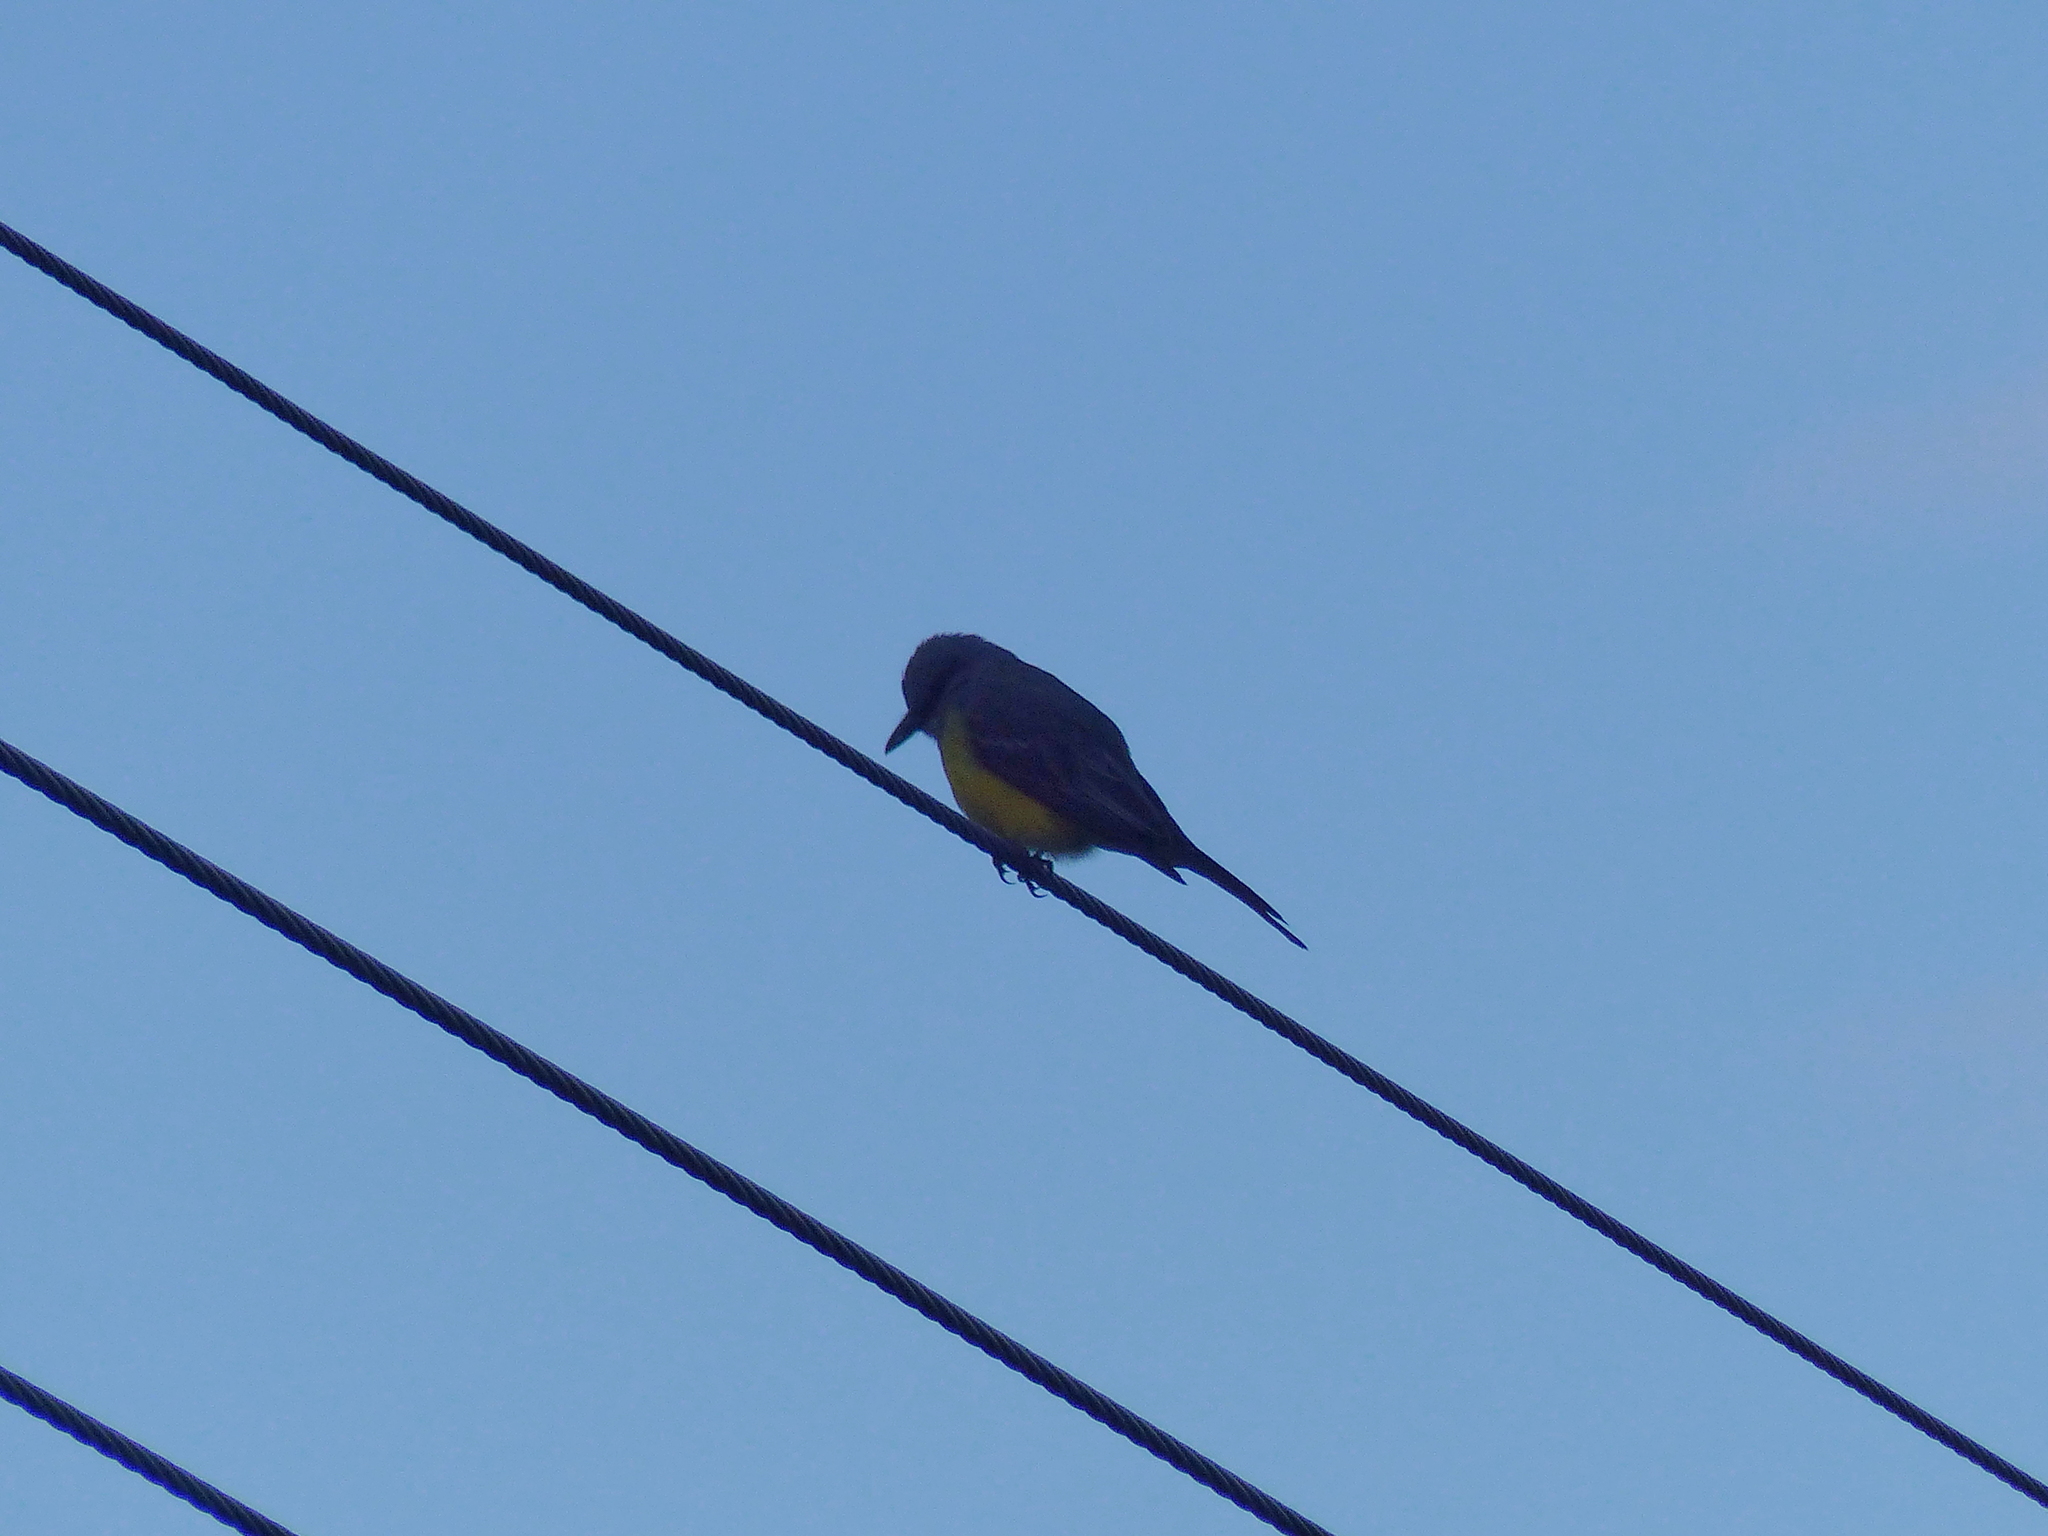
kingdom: Animalia
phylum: Chordata
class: Aves
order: Passeriformes
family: Tyrannidae
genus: Tyrannus
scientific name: Tyrannus melancholicus
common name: Tropical kingbird
